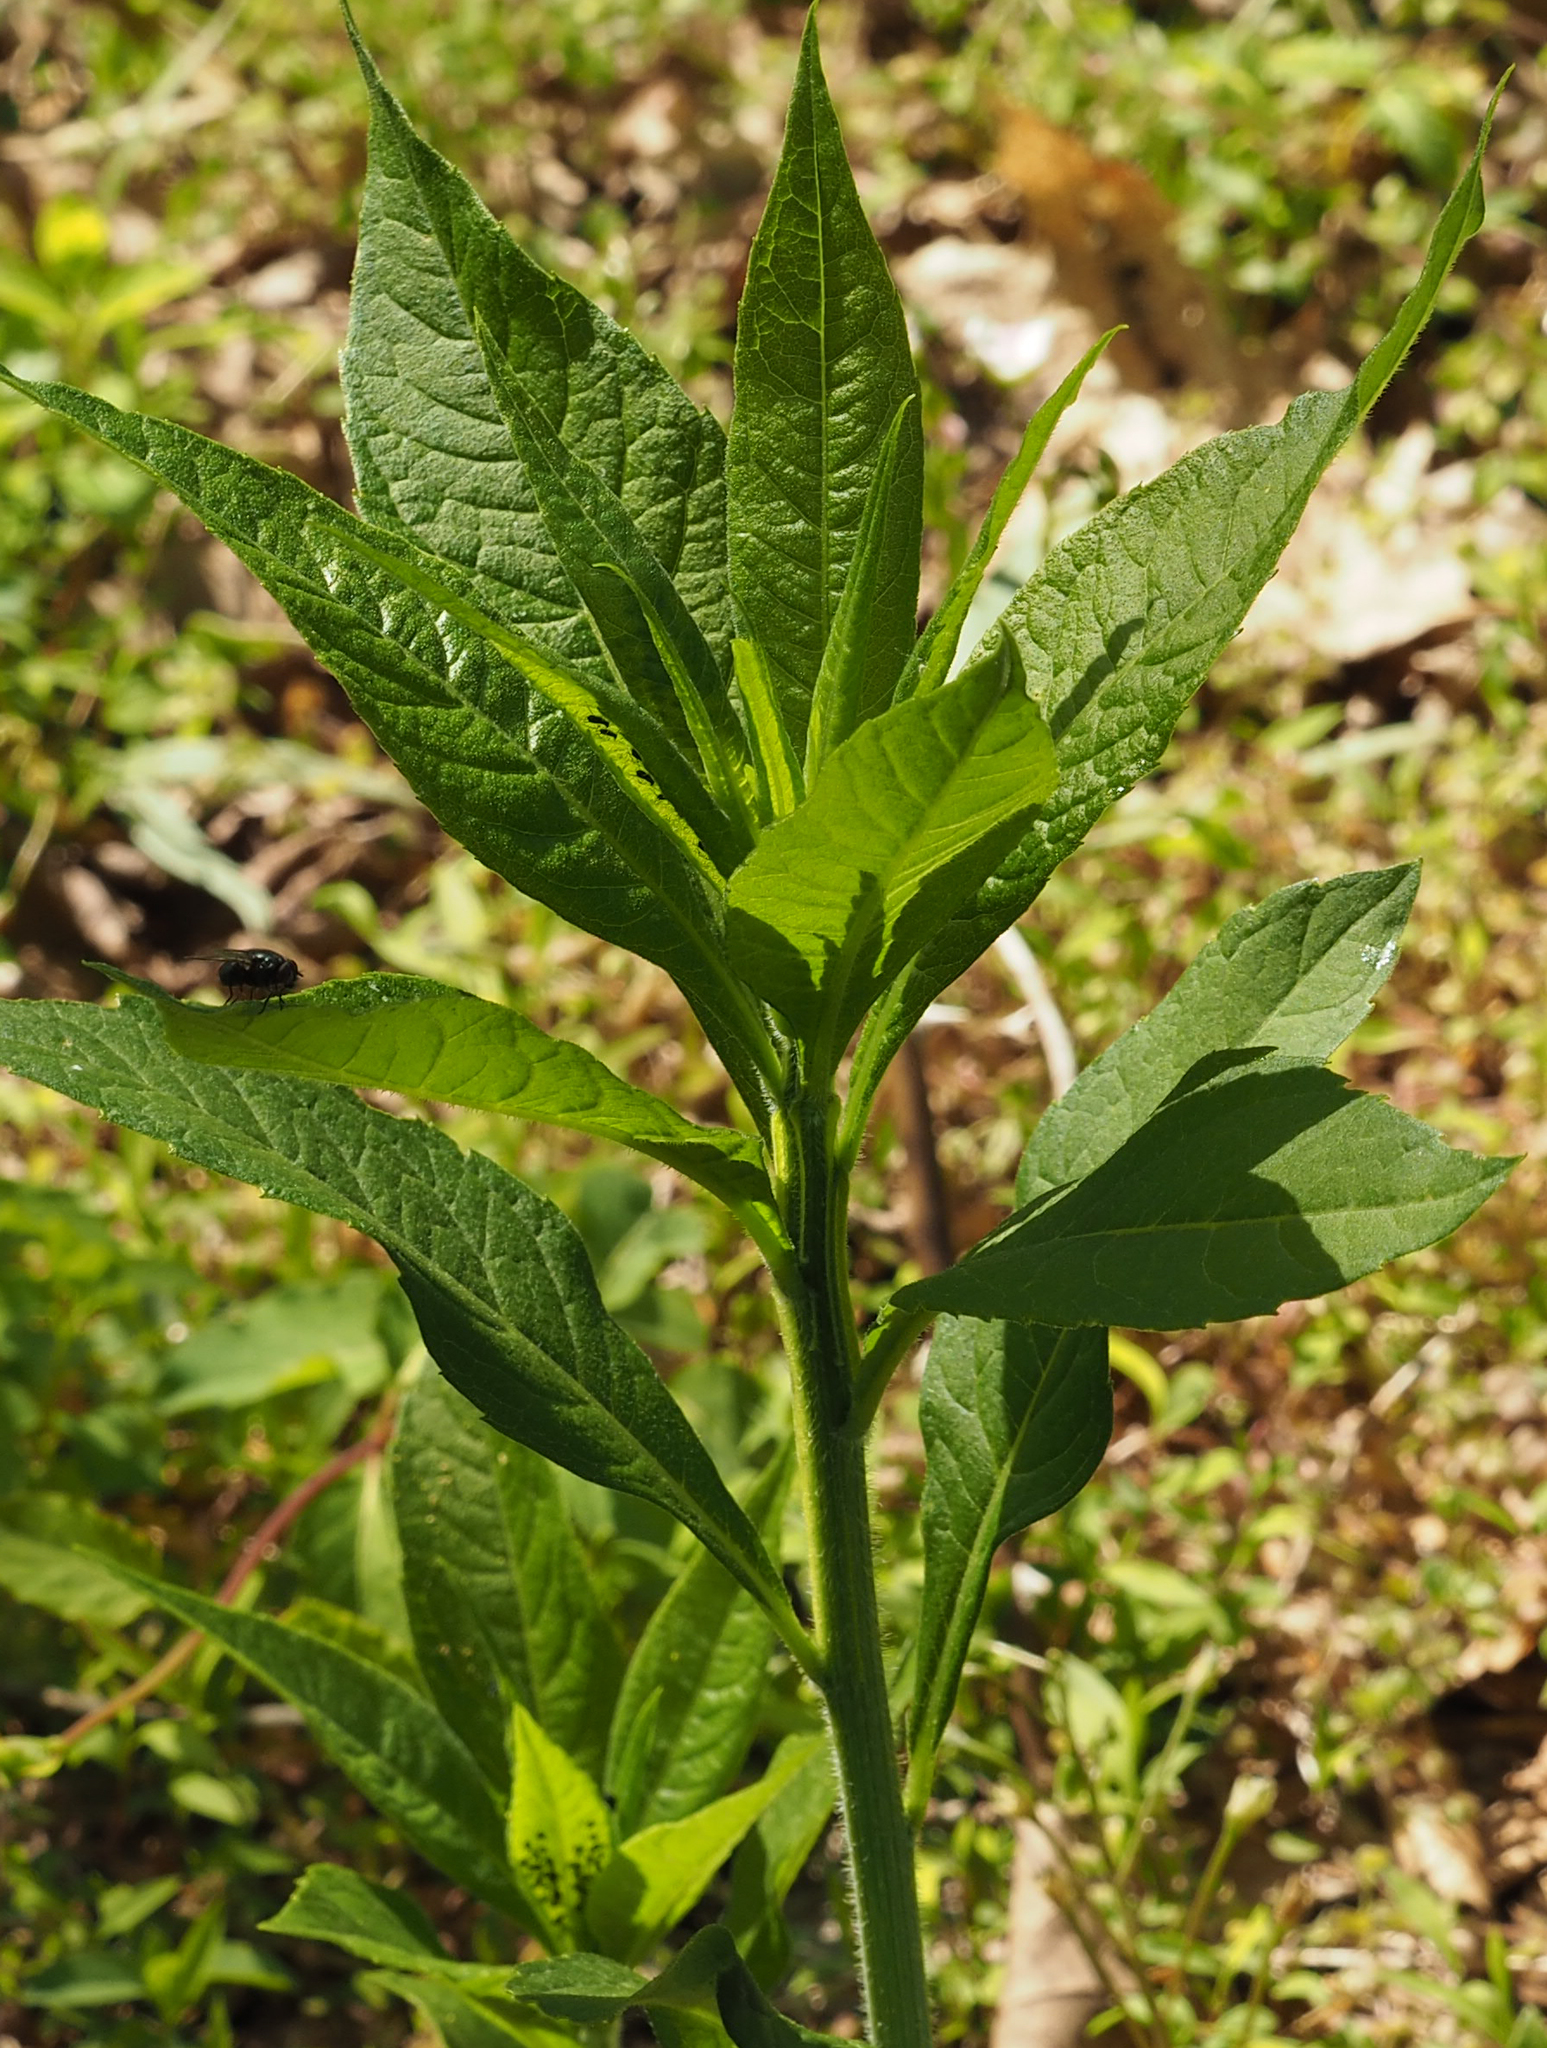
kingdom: Plantae
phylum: Tracheophyta
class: Magnoliopsida
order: Asterales
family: Asteraceae
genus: Verbesina
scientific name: Verbesina alternifolia
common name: Wingstem
